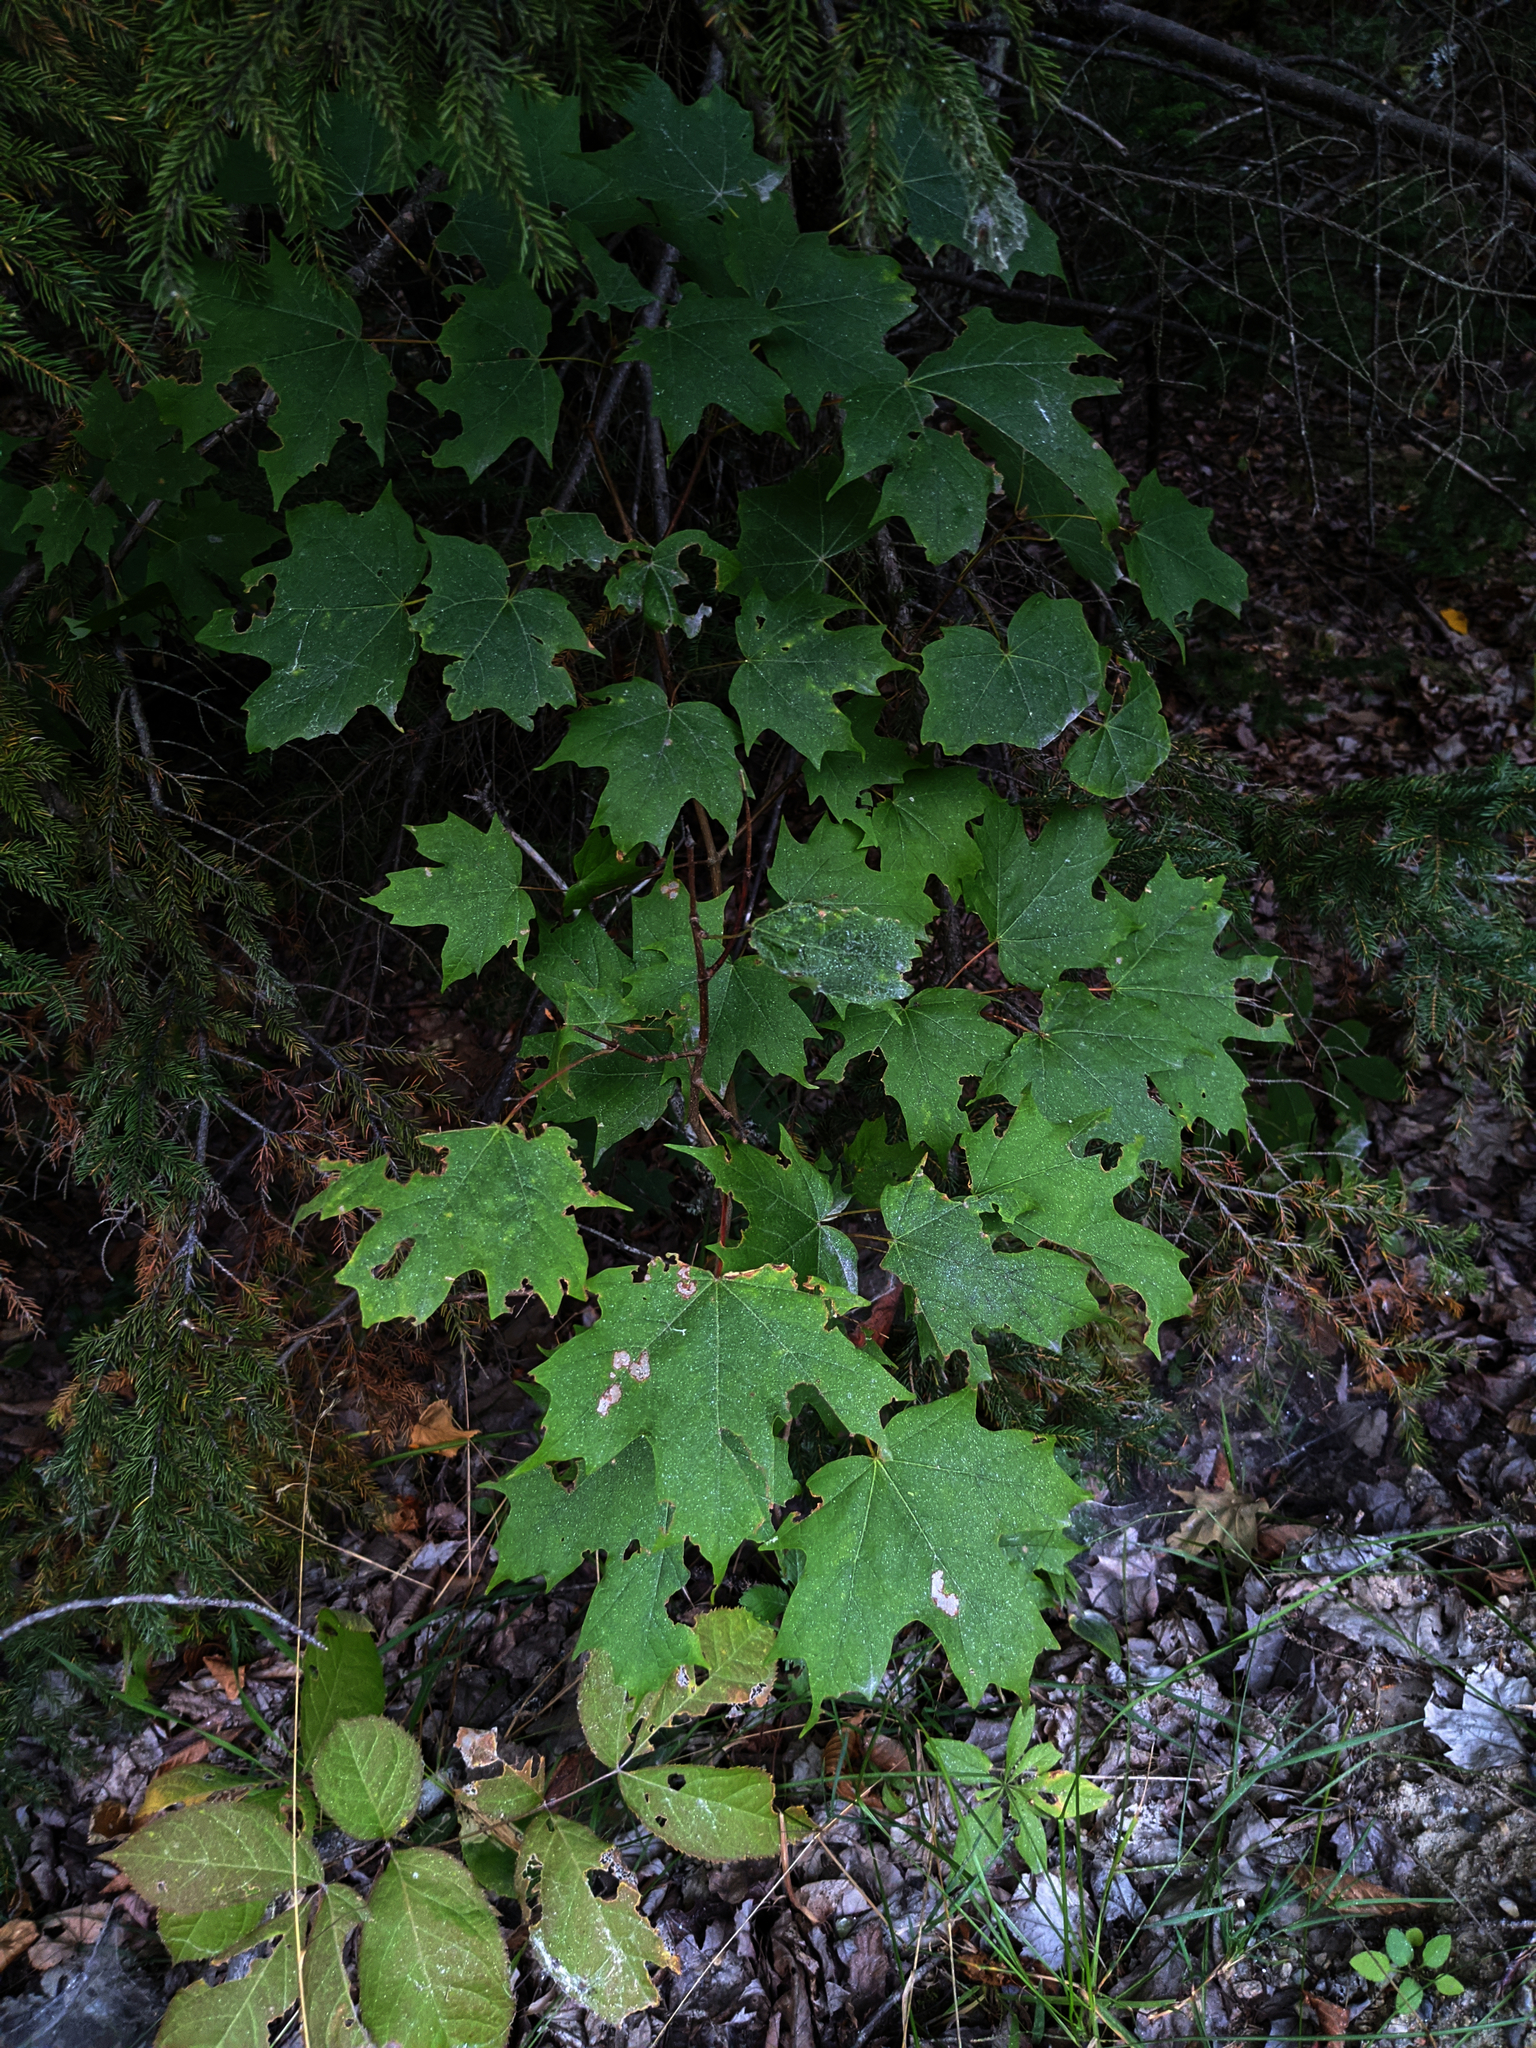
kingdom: Plantae
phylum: Tracheophyta
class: Magnoliopsida
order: Sapindales
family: Sapindaceae
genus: Acer
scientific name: Acer saccharum
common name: Sugar maple
